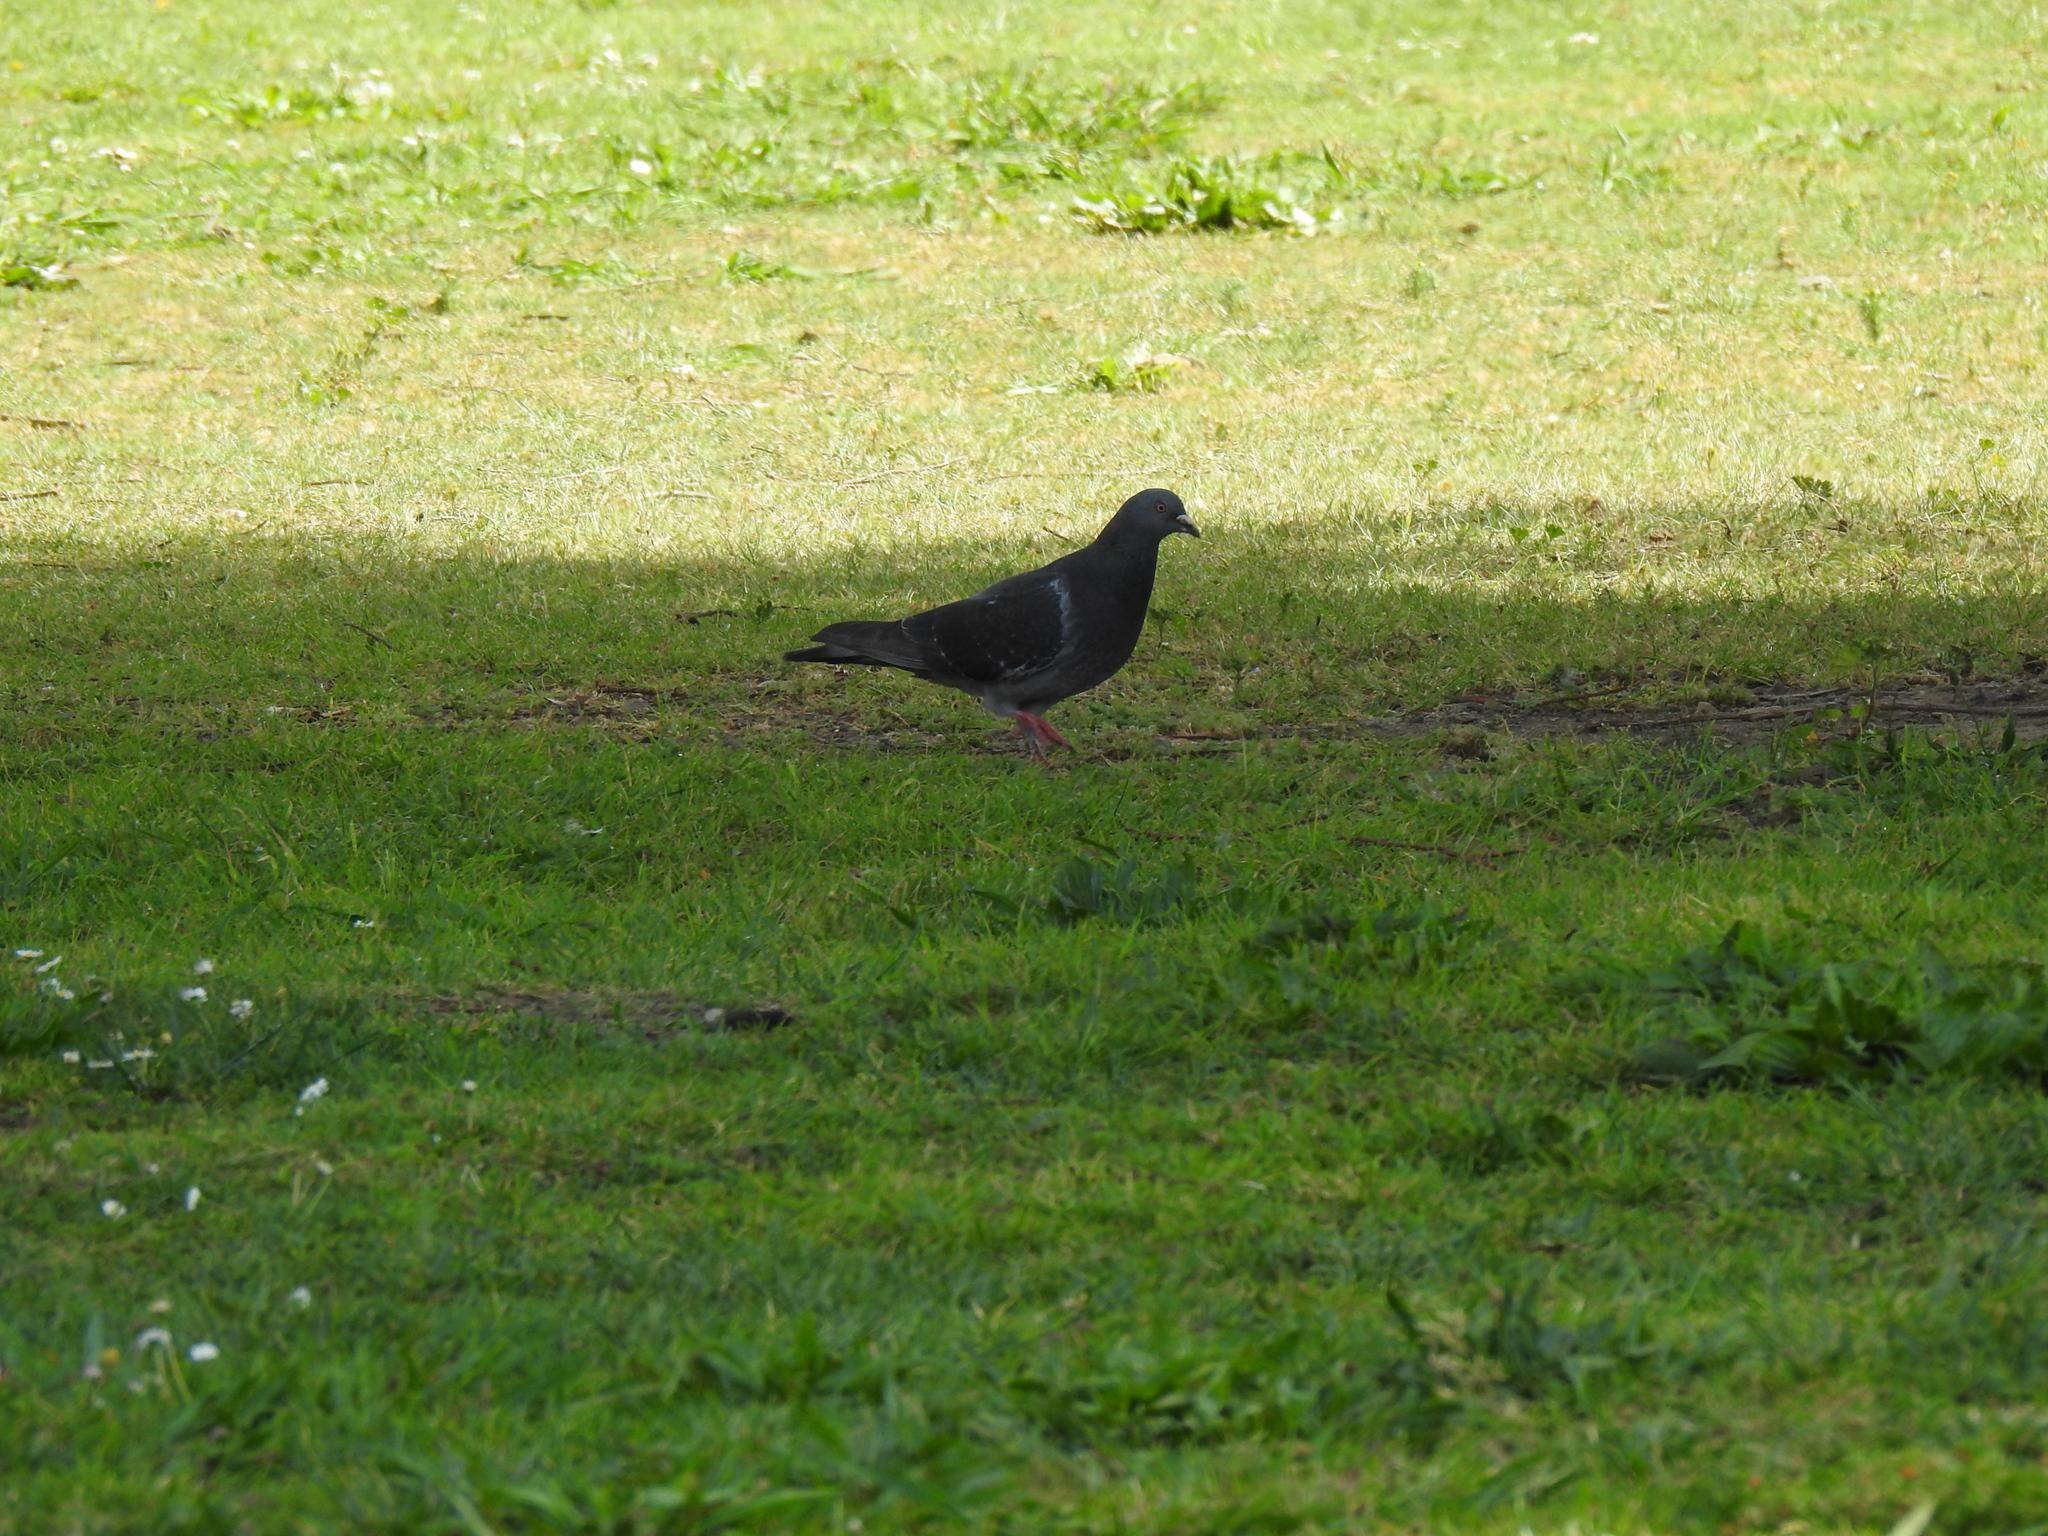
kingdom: Animalia
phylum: Chordata
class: Aves
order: Columbiformes
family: Columbidae
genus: Columba
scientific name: Columba livia
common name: Rock pigeon
